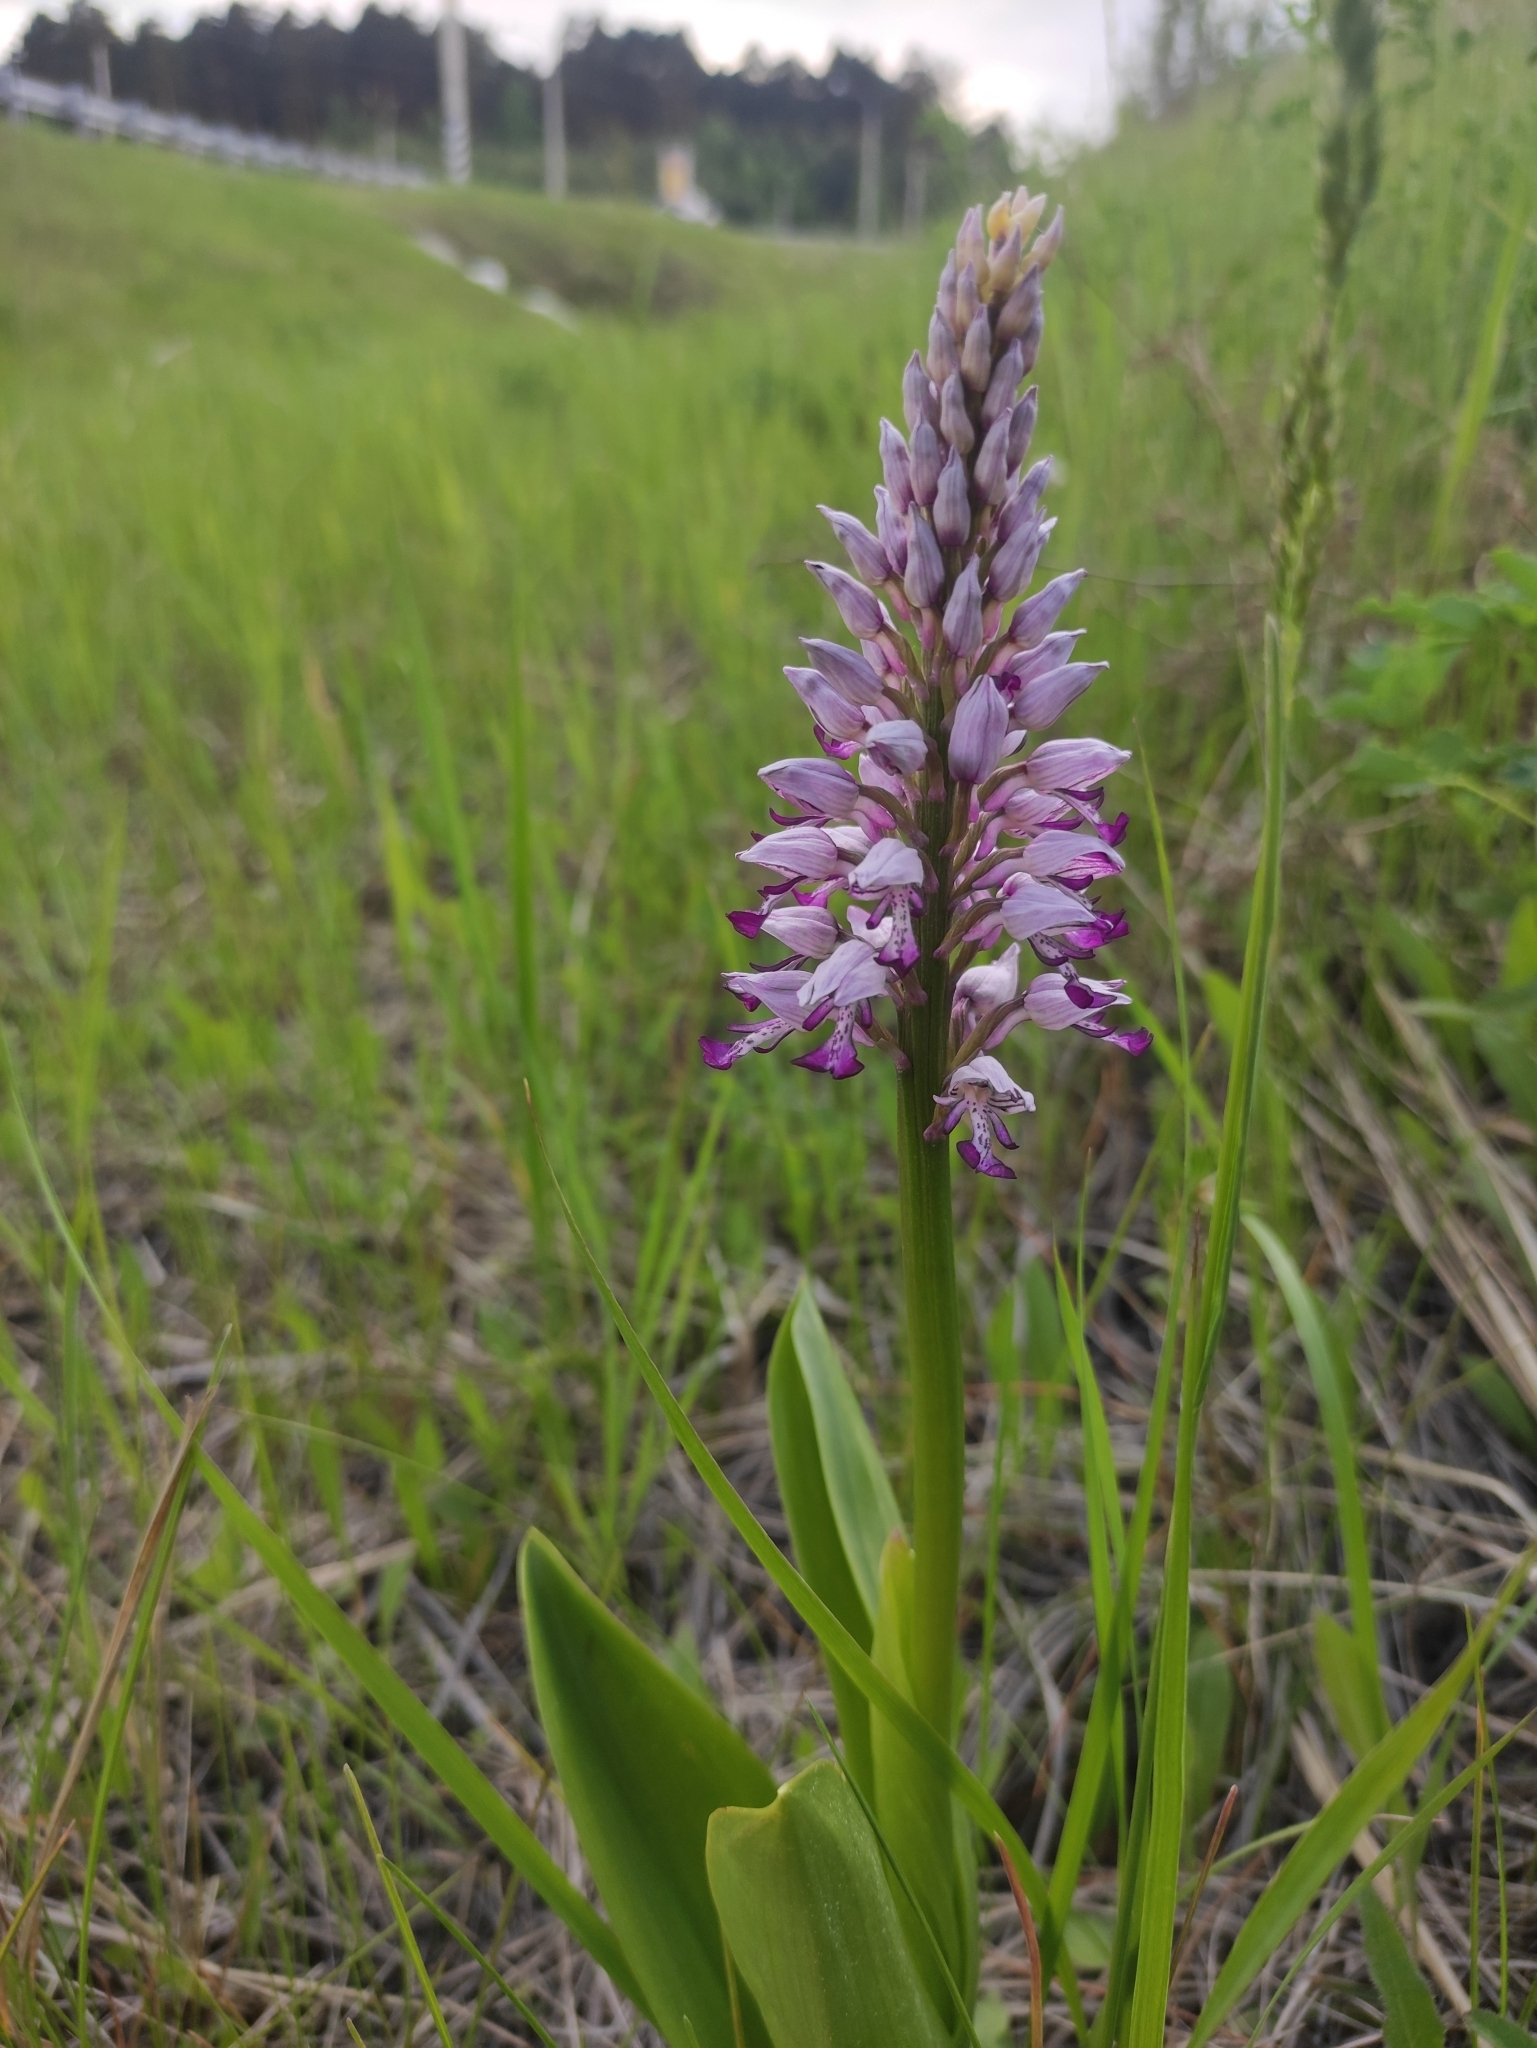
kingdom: Plantae
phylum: Tracheophyta
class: Liliopsida
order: Asparagales
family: Orchidaceae
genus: Orchis
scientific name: Orchis militaris
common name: Military orchid
